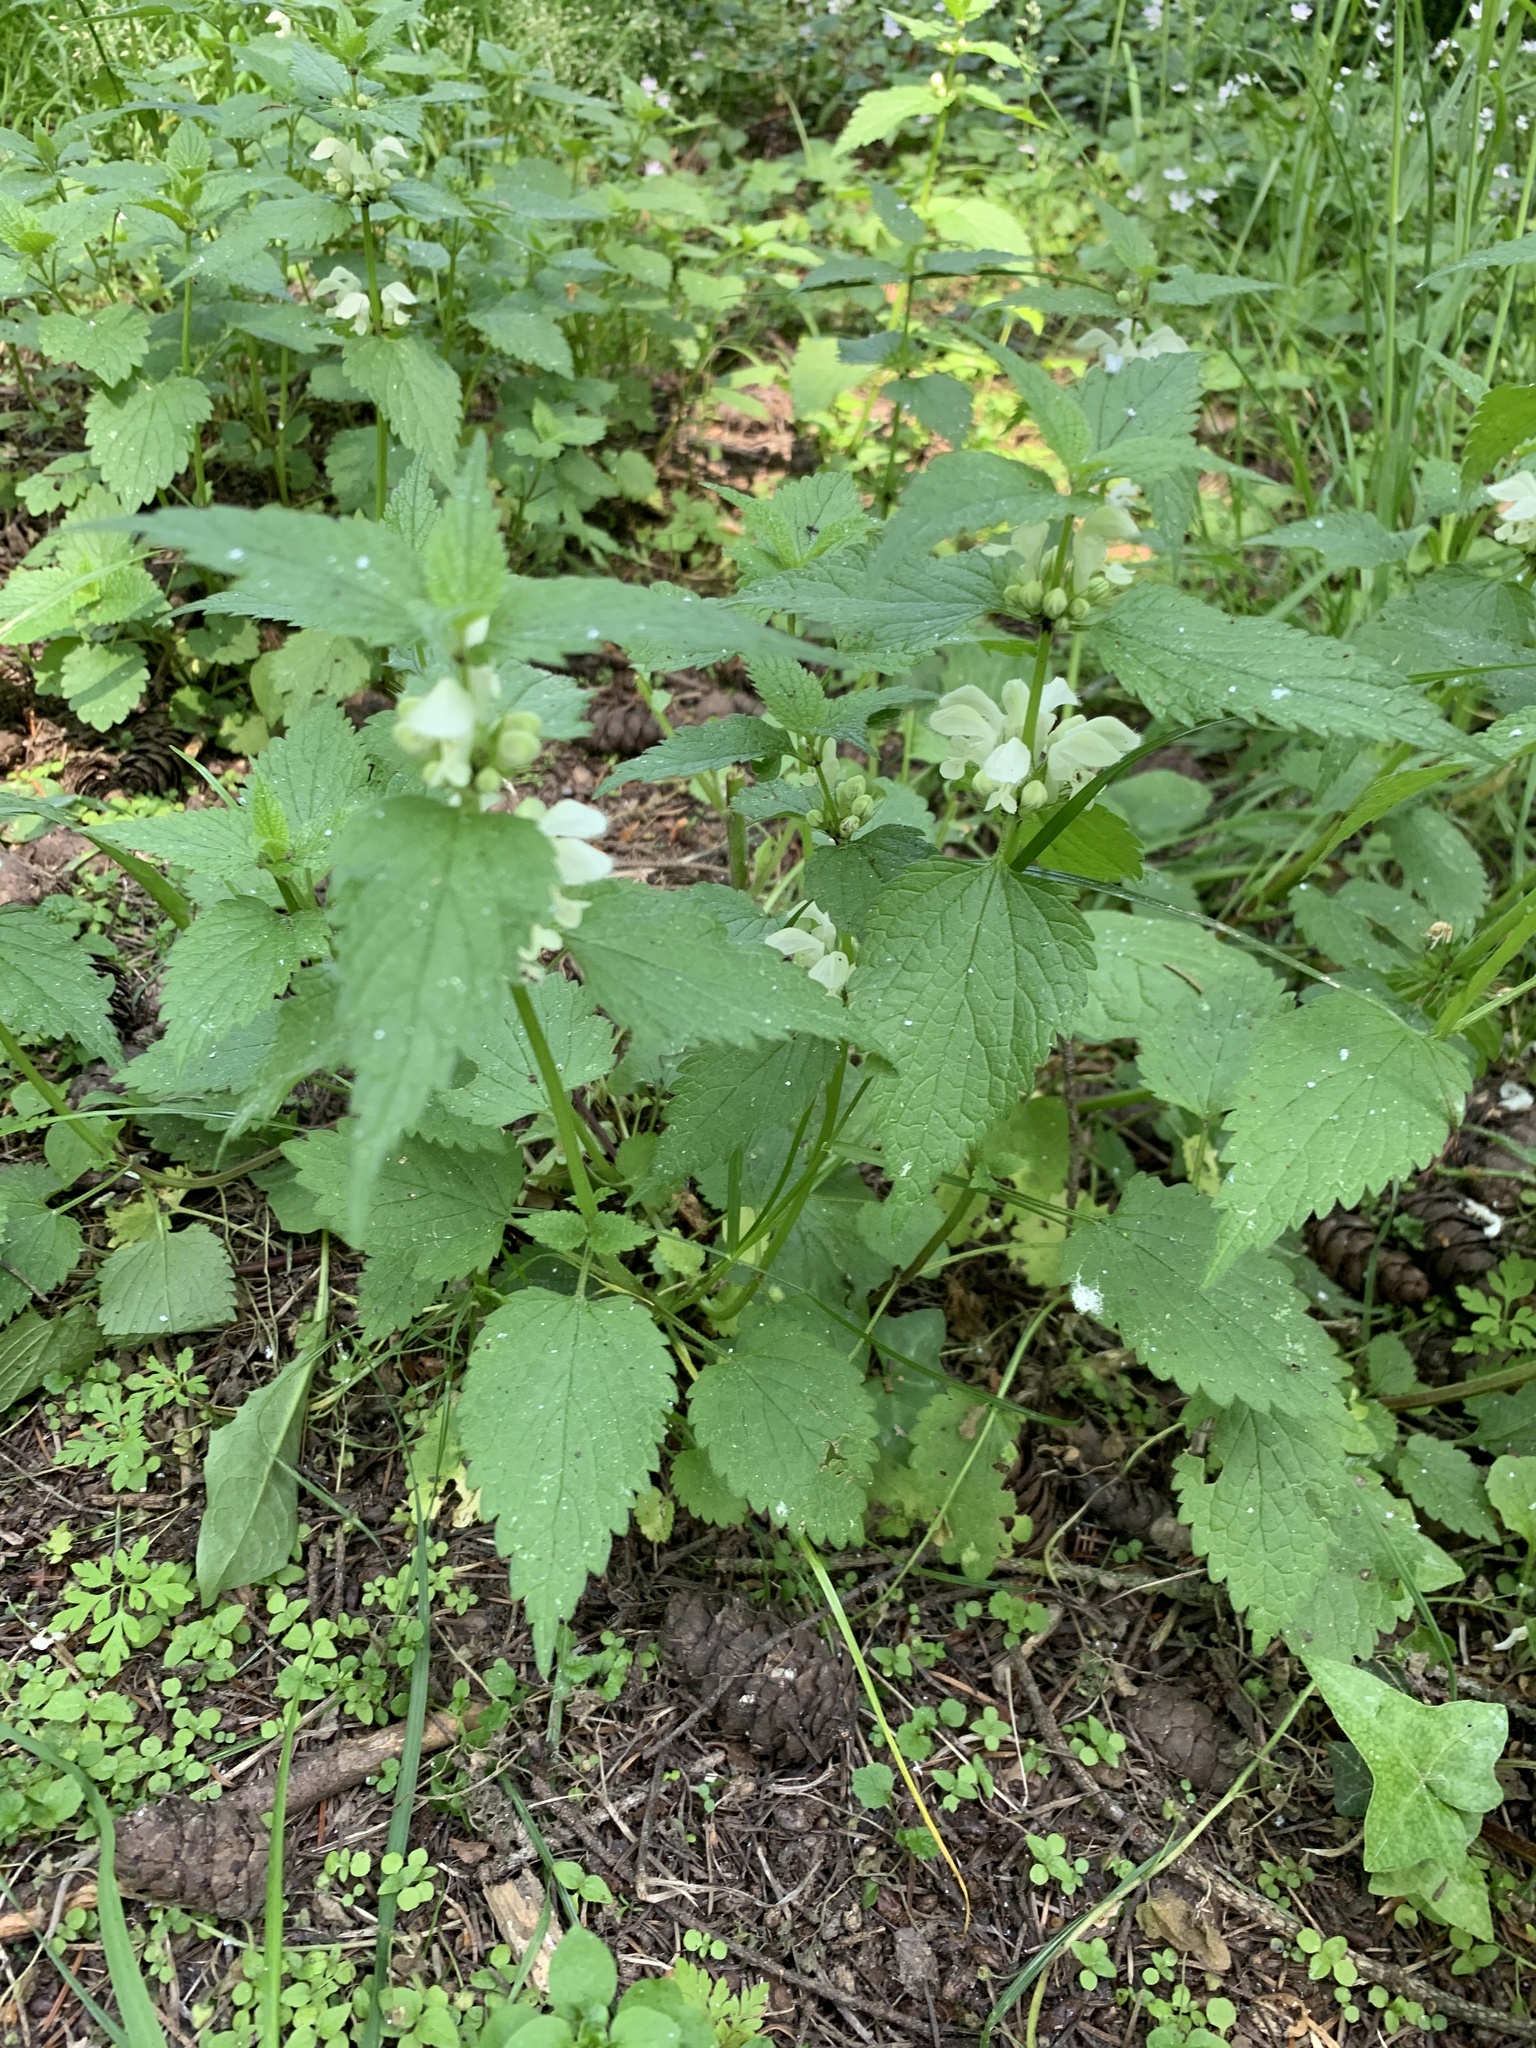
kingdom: Plantae
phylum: Tracheophyta
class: Magnoliopsida
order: Lamiales
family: Lamiaceae
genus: Lamium
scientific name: Lamium album
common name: White dead-nettle
